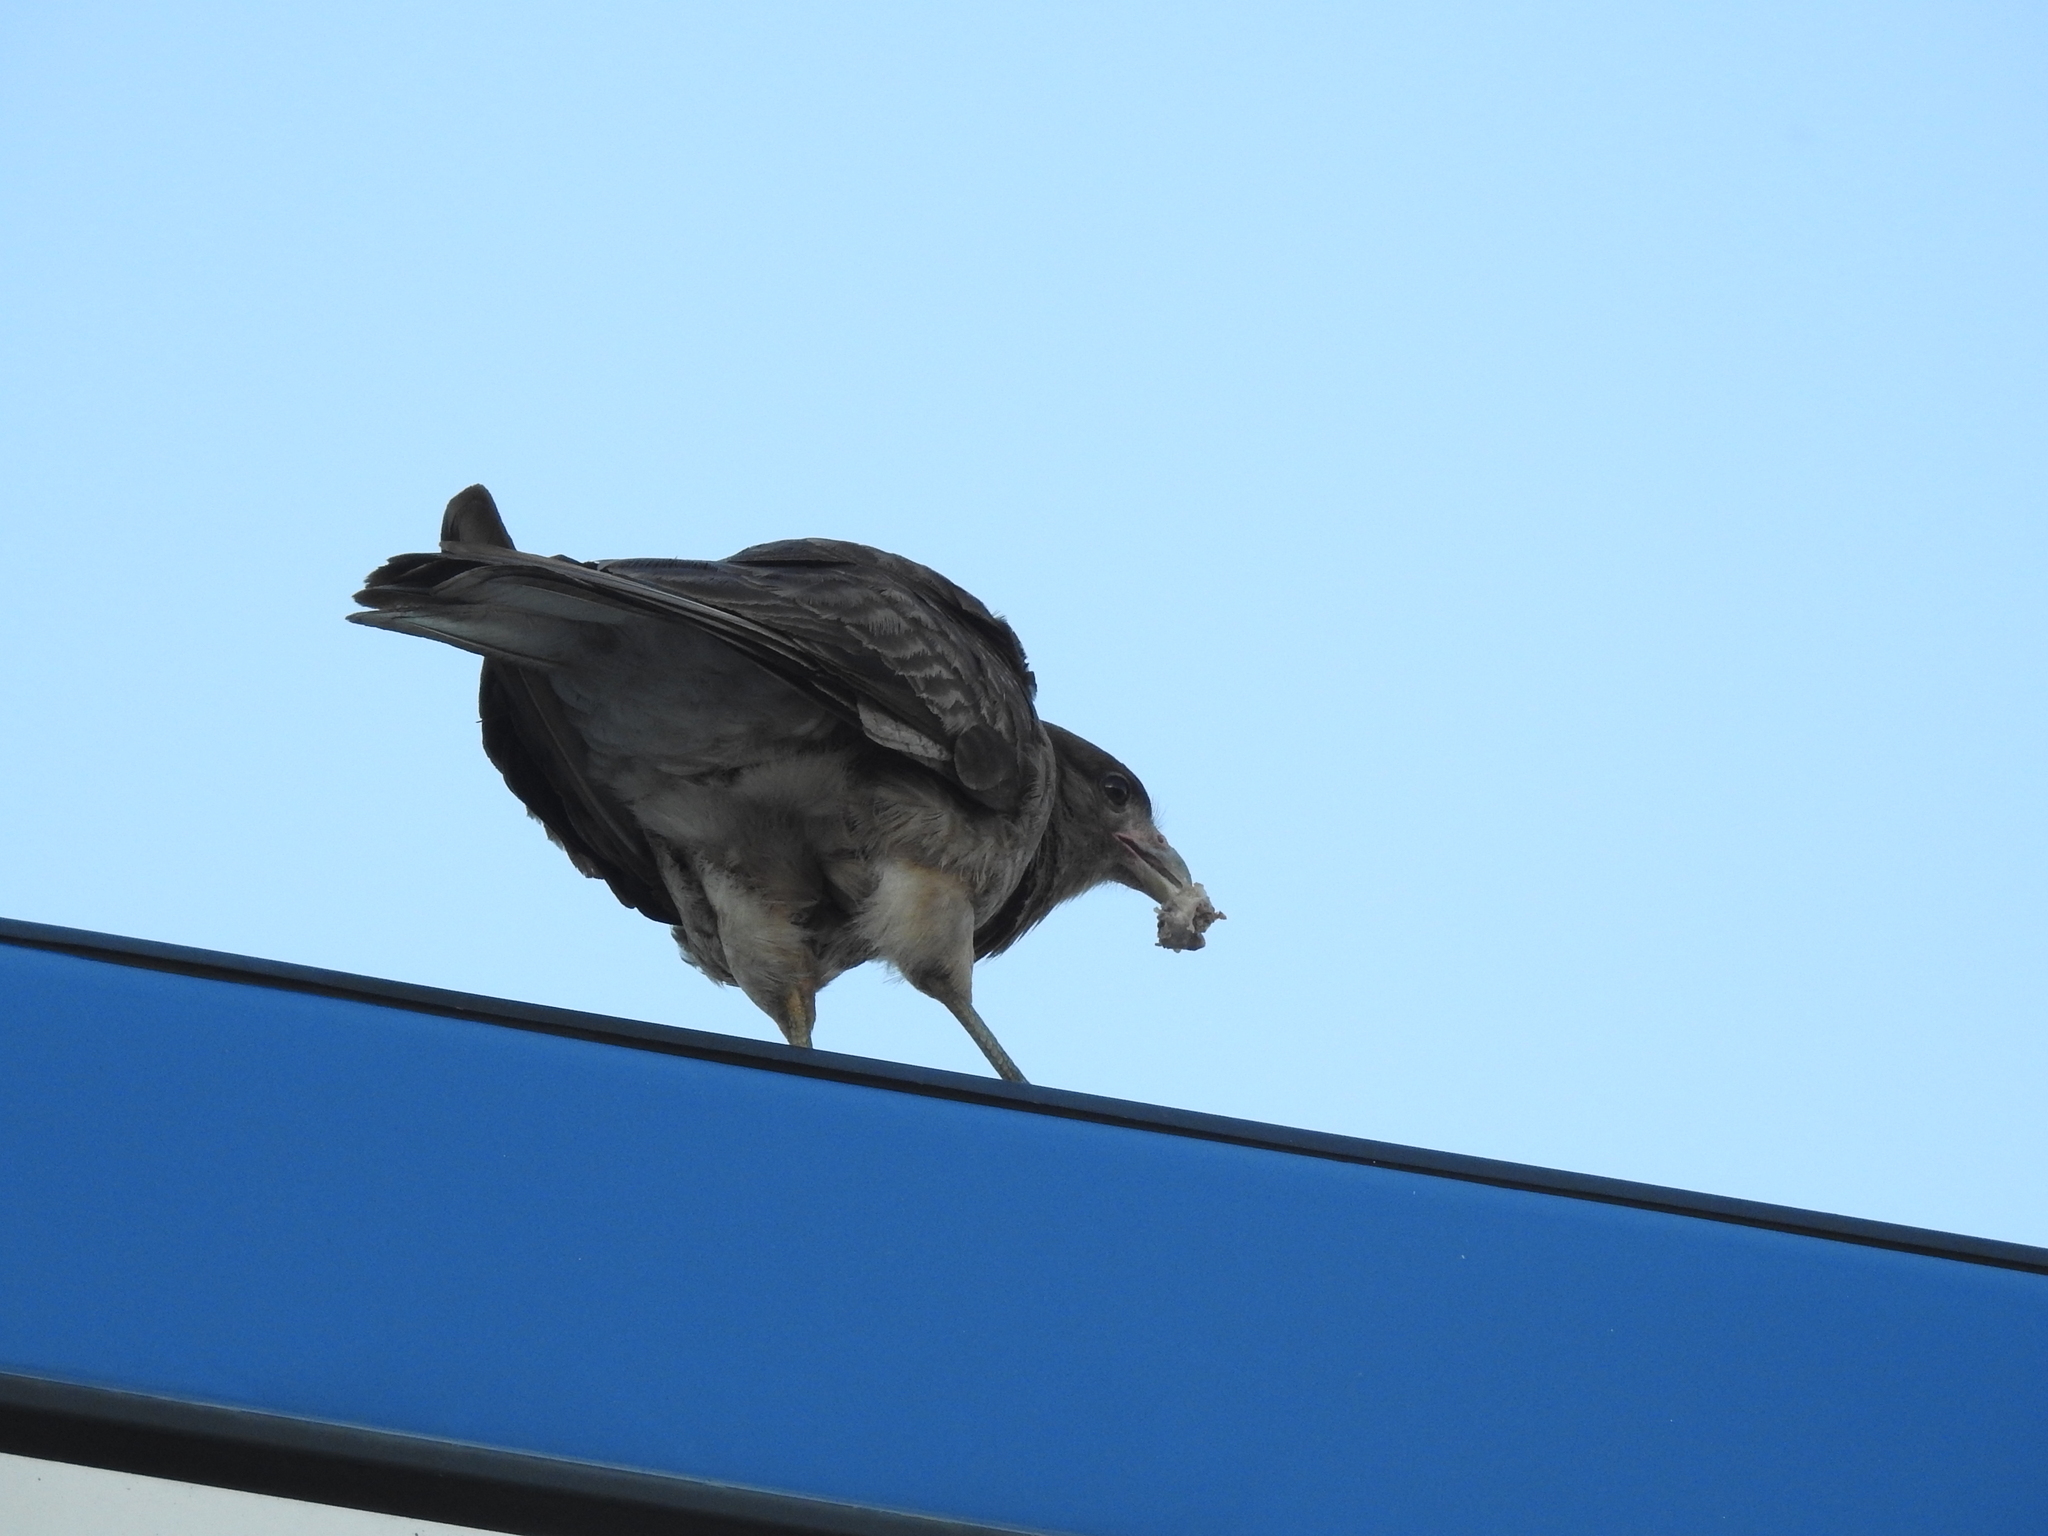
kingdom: Animalia
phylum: Chordata
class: Aves
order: Falconiformes
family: Falconidae
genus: Daptrius
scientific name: Daptrius
